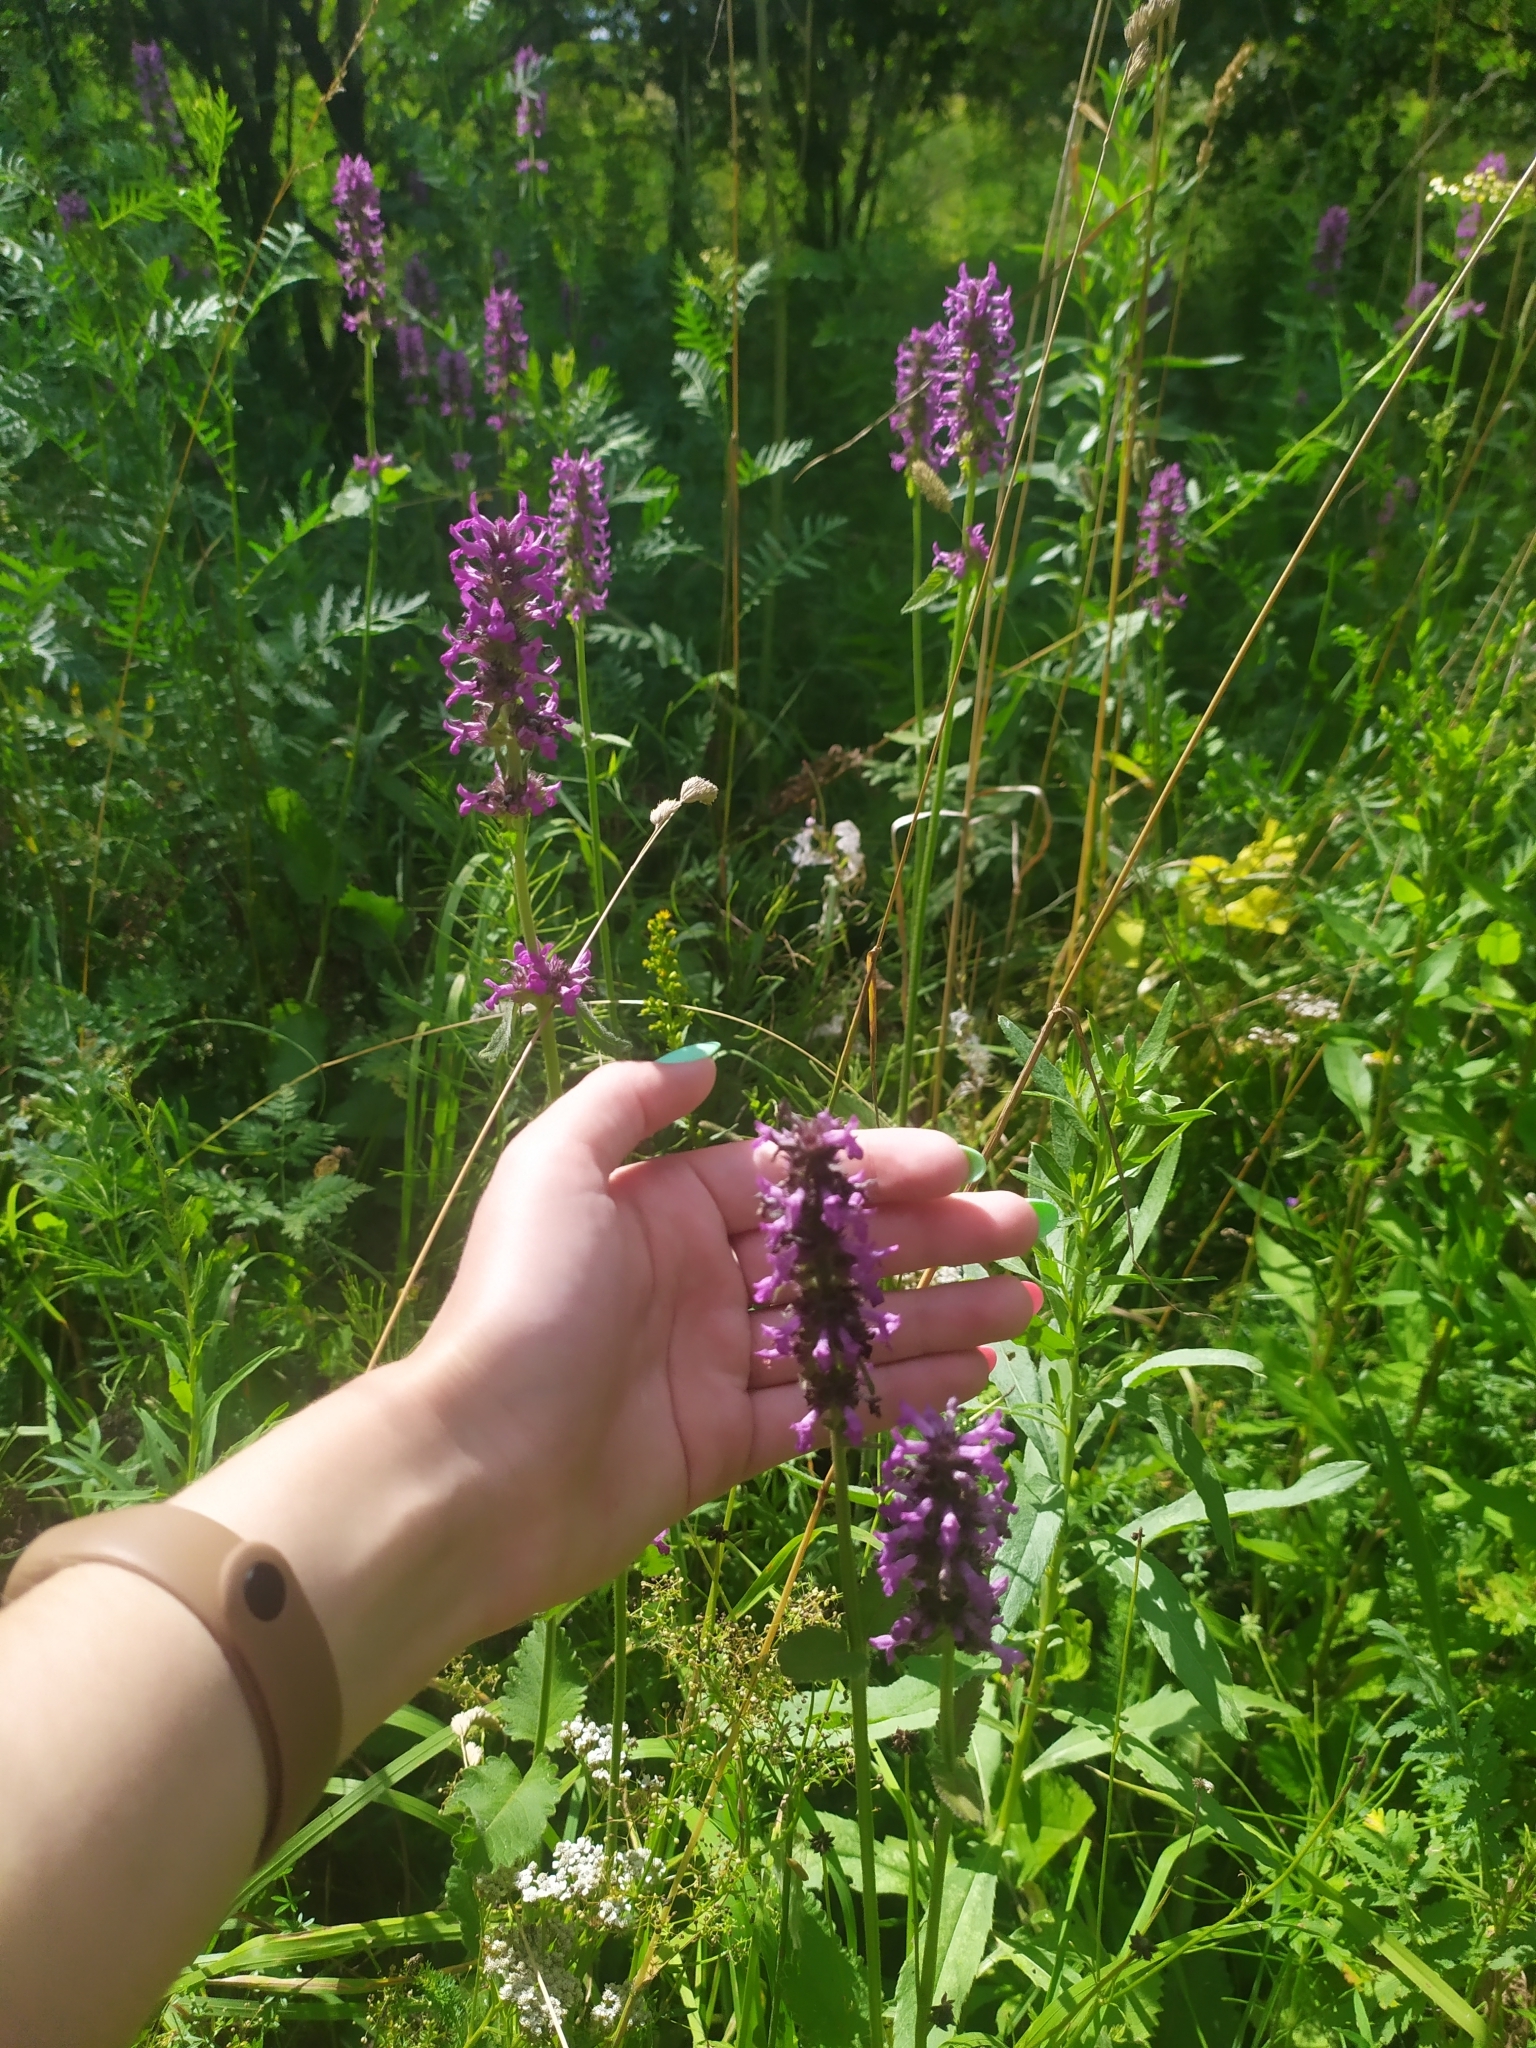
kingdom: Plantae
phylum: Tracheophyta
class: Magnoliopsida
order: Lamiales
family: Lamiaceae
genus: Betonica
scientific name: Betonica officinalis
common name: Bishop's-wort
